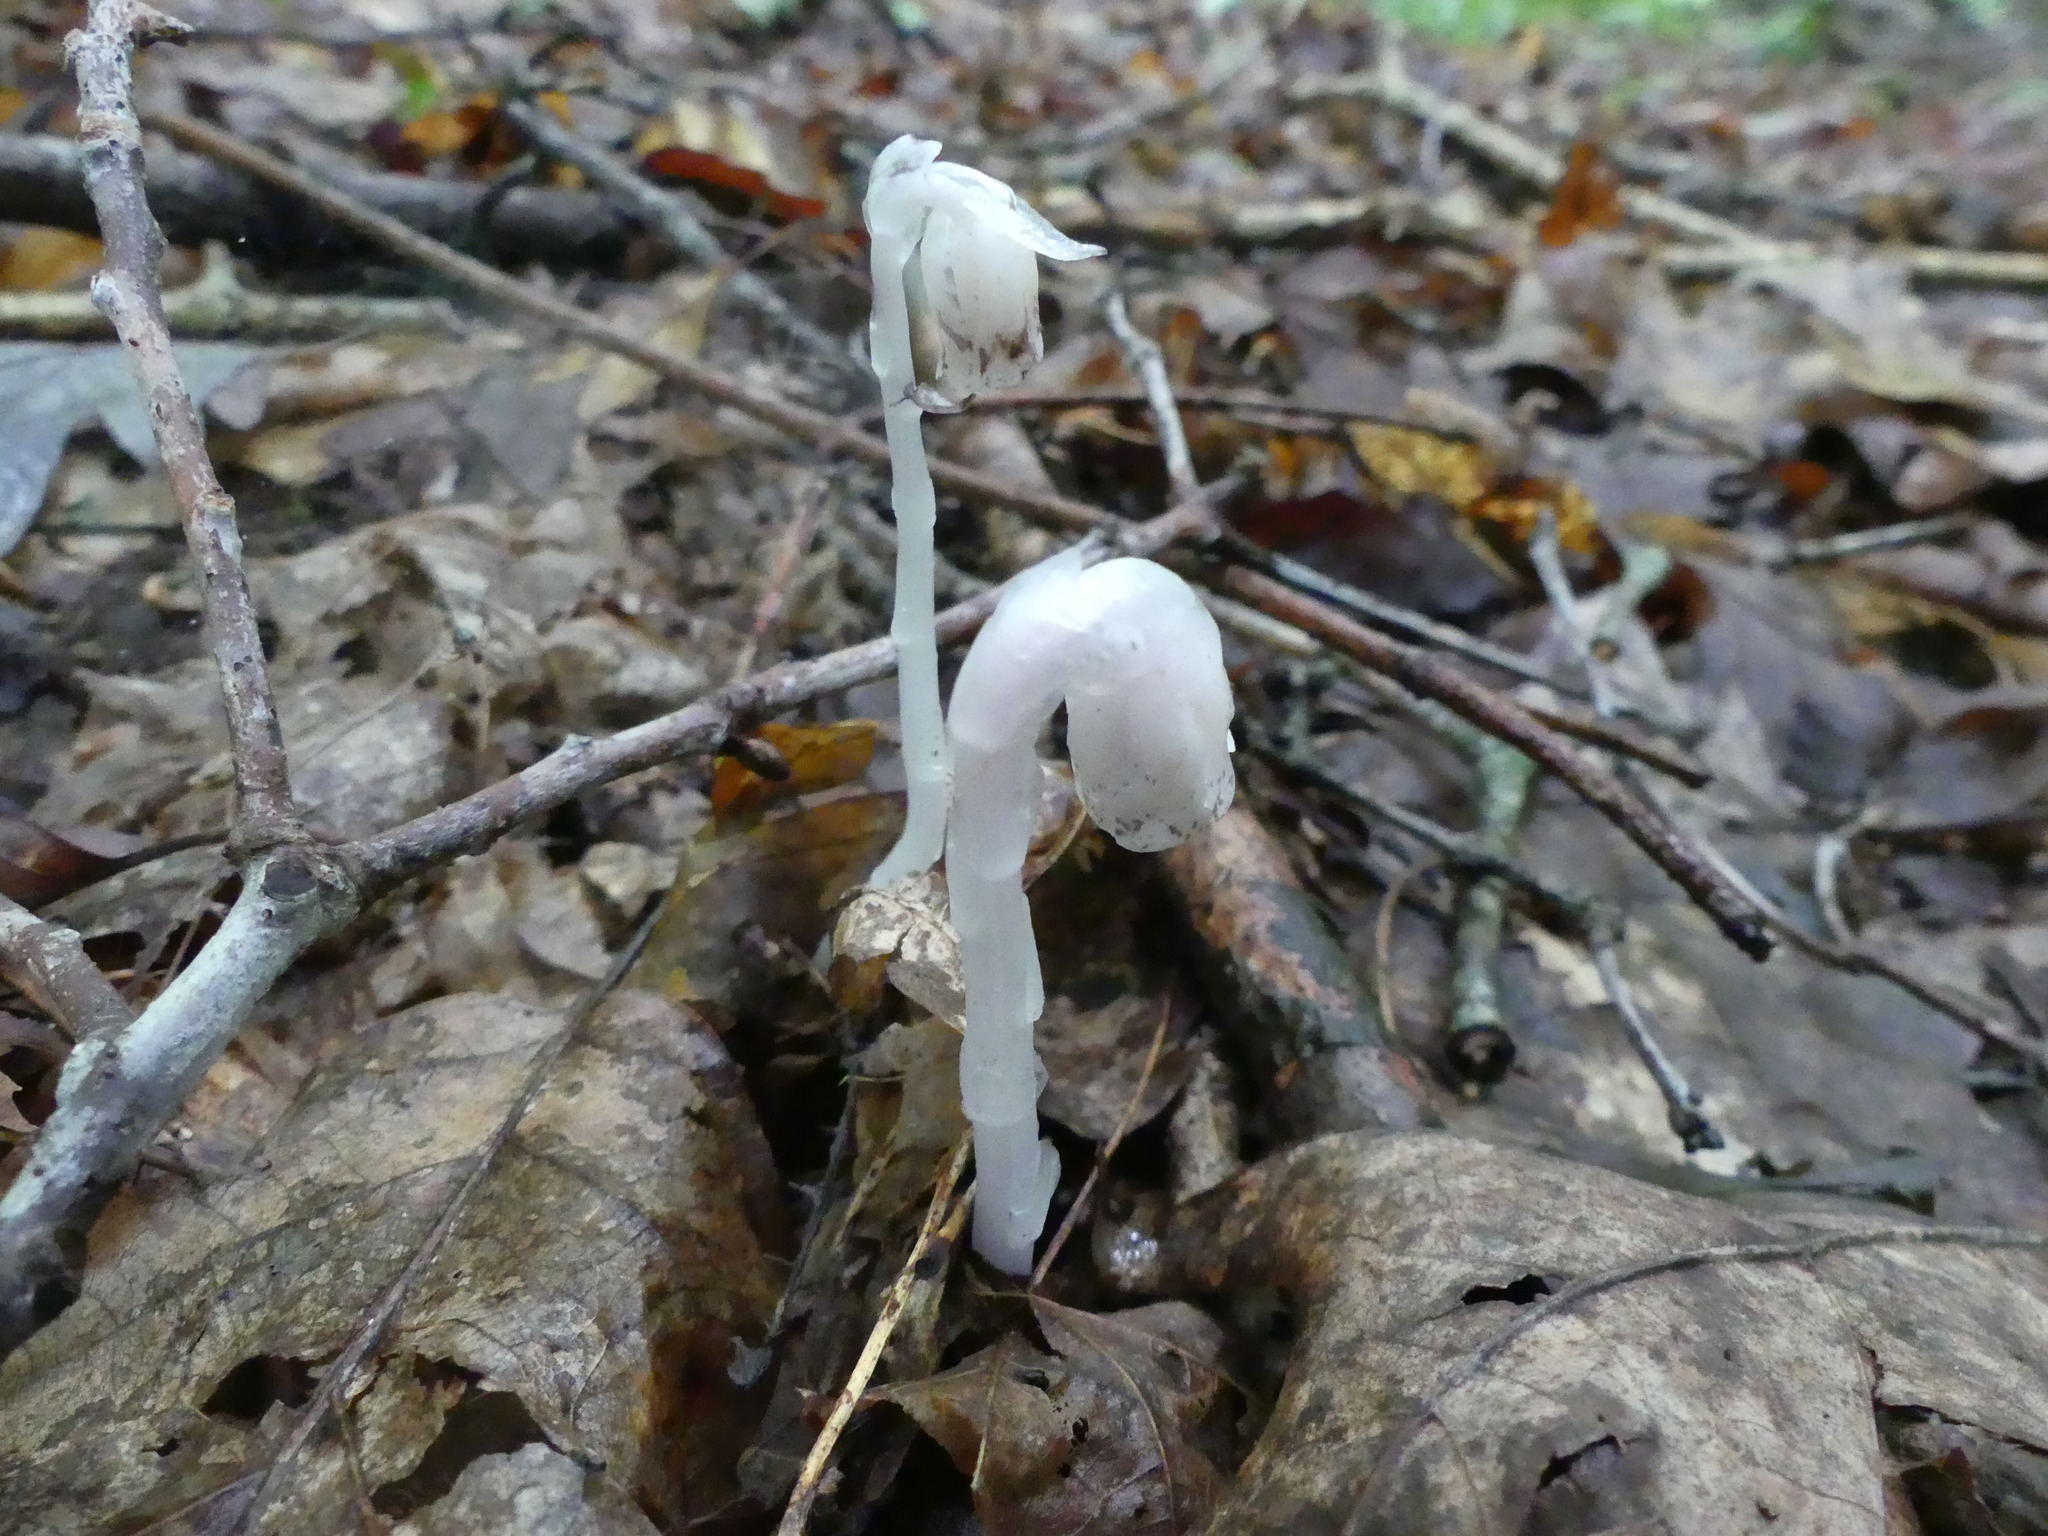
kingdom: Plantae
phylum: Tracheophyta
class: Magnoliopsida
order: Ericales
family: Ericaceae
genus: Monotropa
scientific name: Monotropa uniflora
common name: Convulsion root
